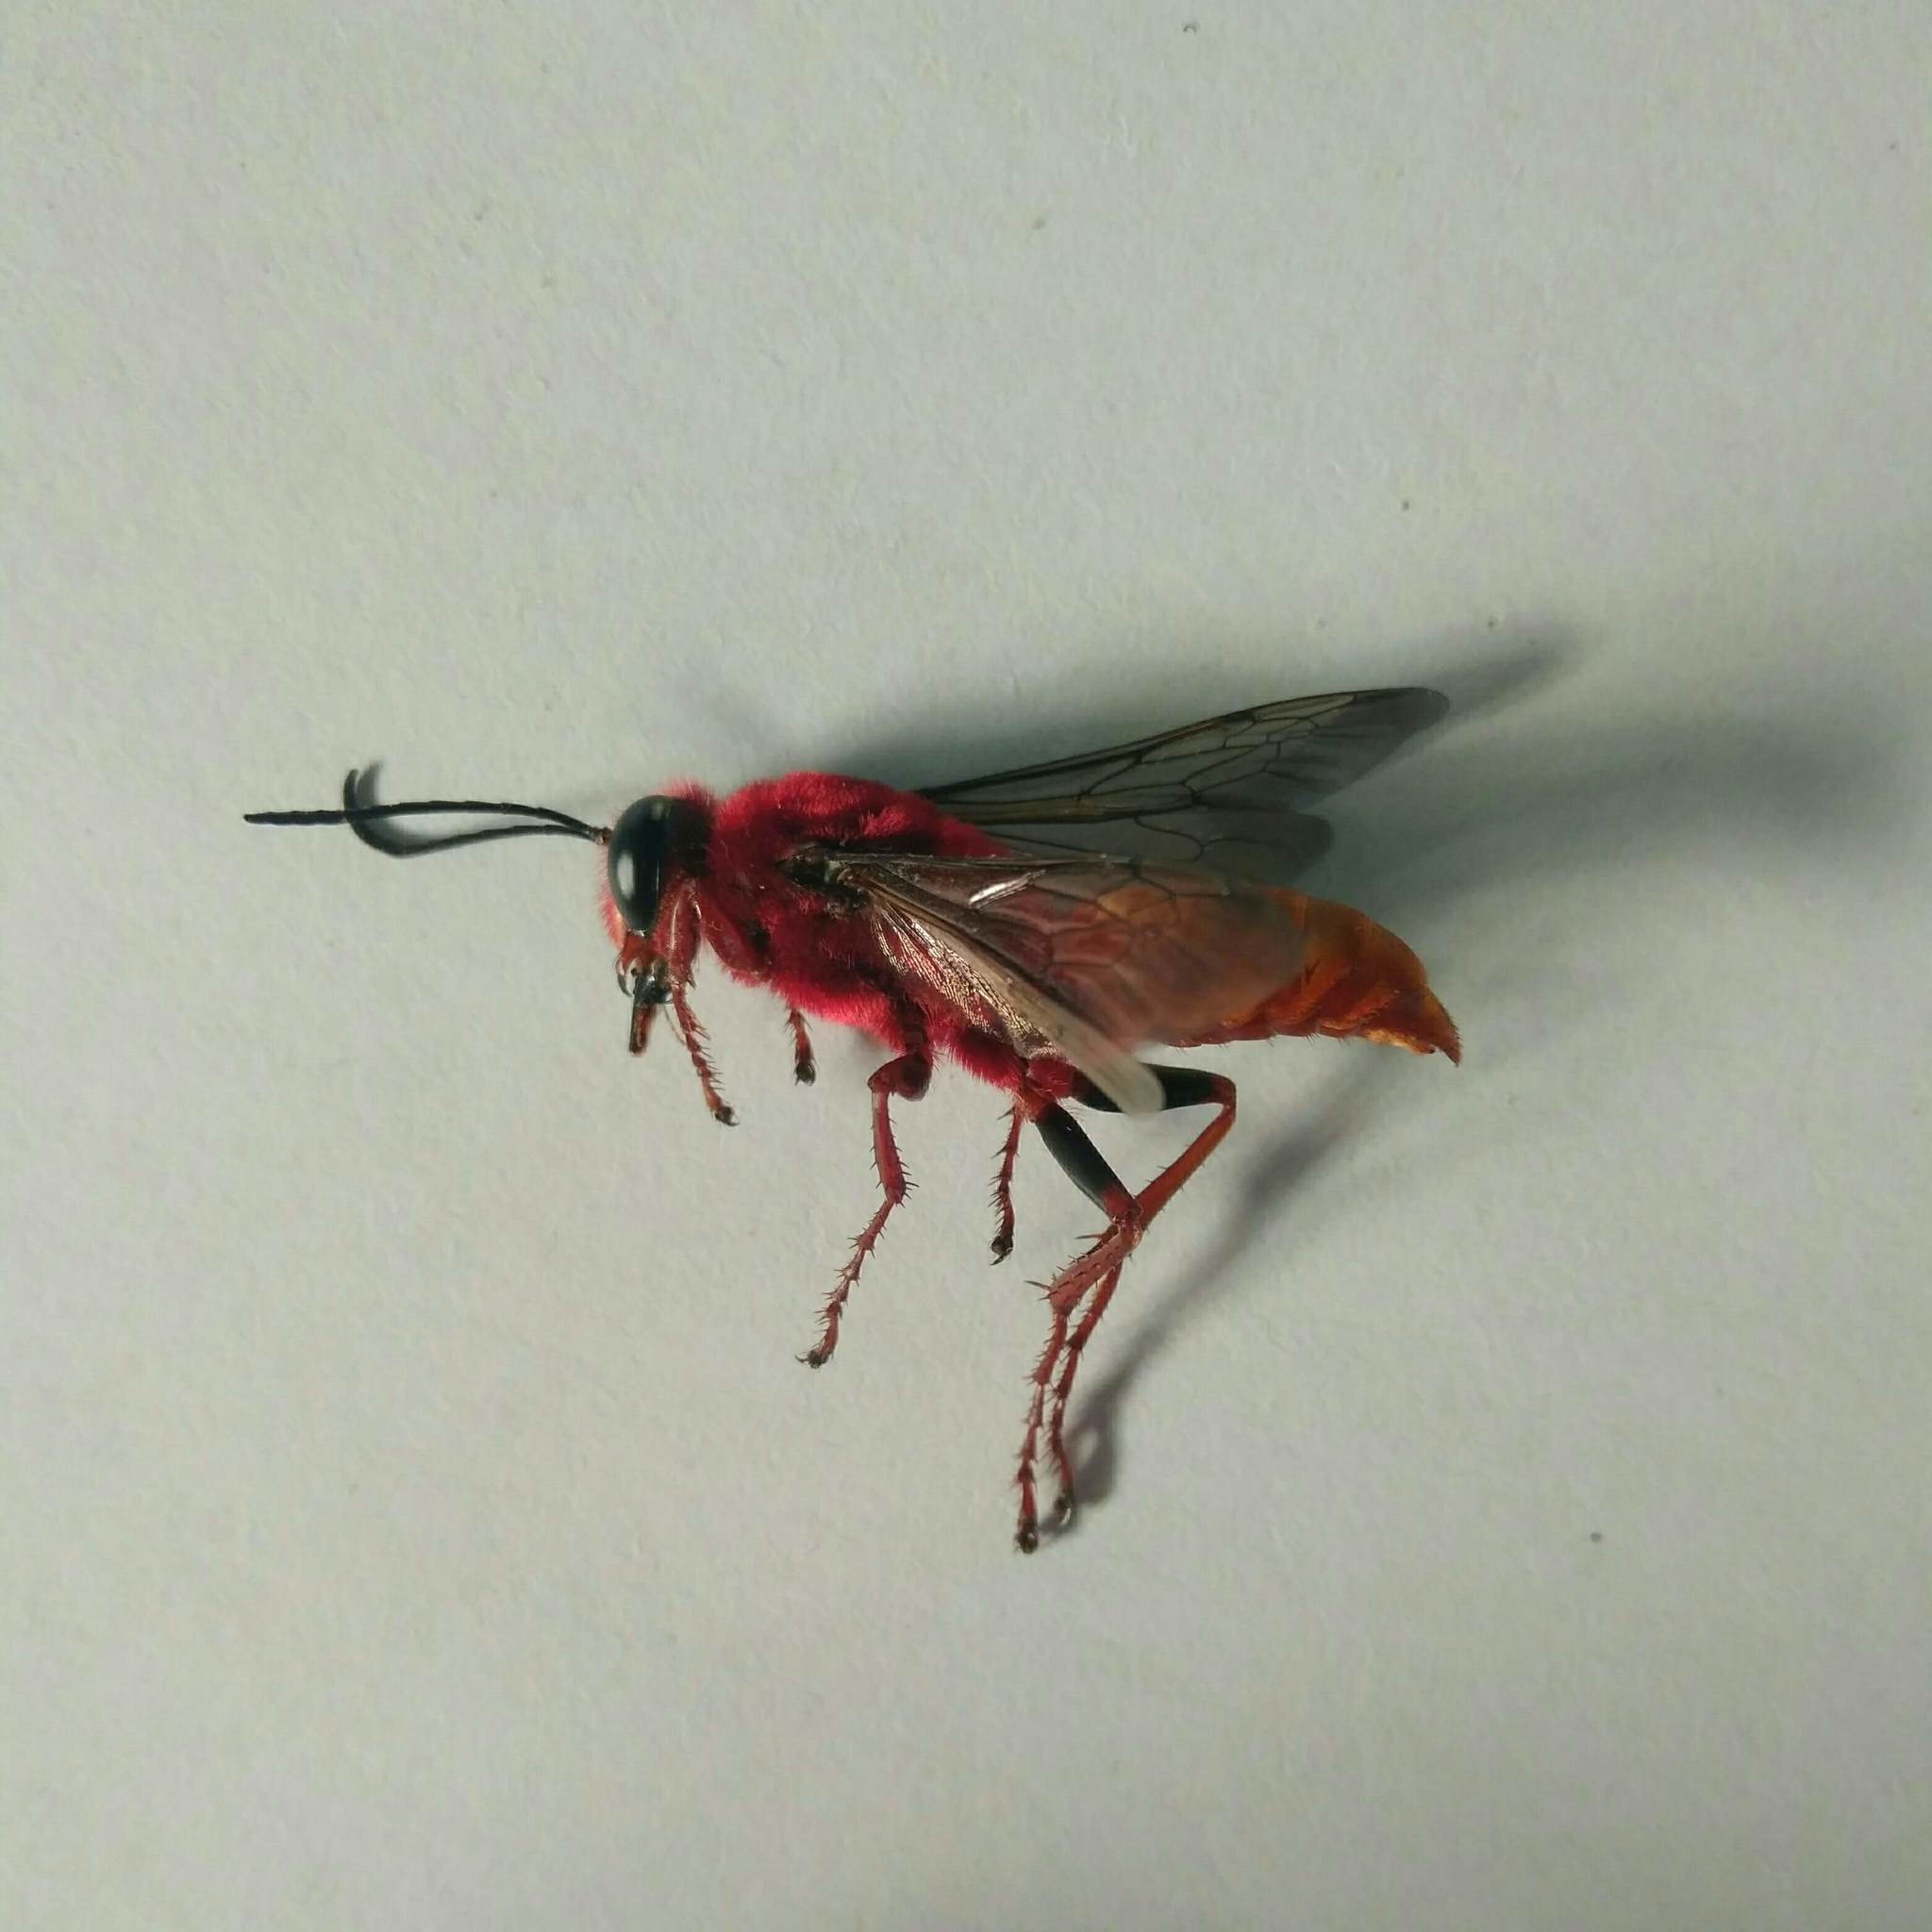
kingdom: Animalia
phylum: Arthropoda
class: Insecta
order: Hymenoptera
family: Sphecidae
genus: Sphex
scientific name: Sphex latreillei
